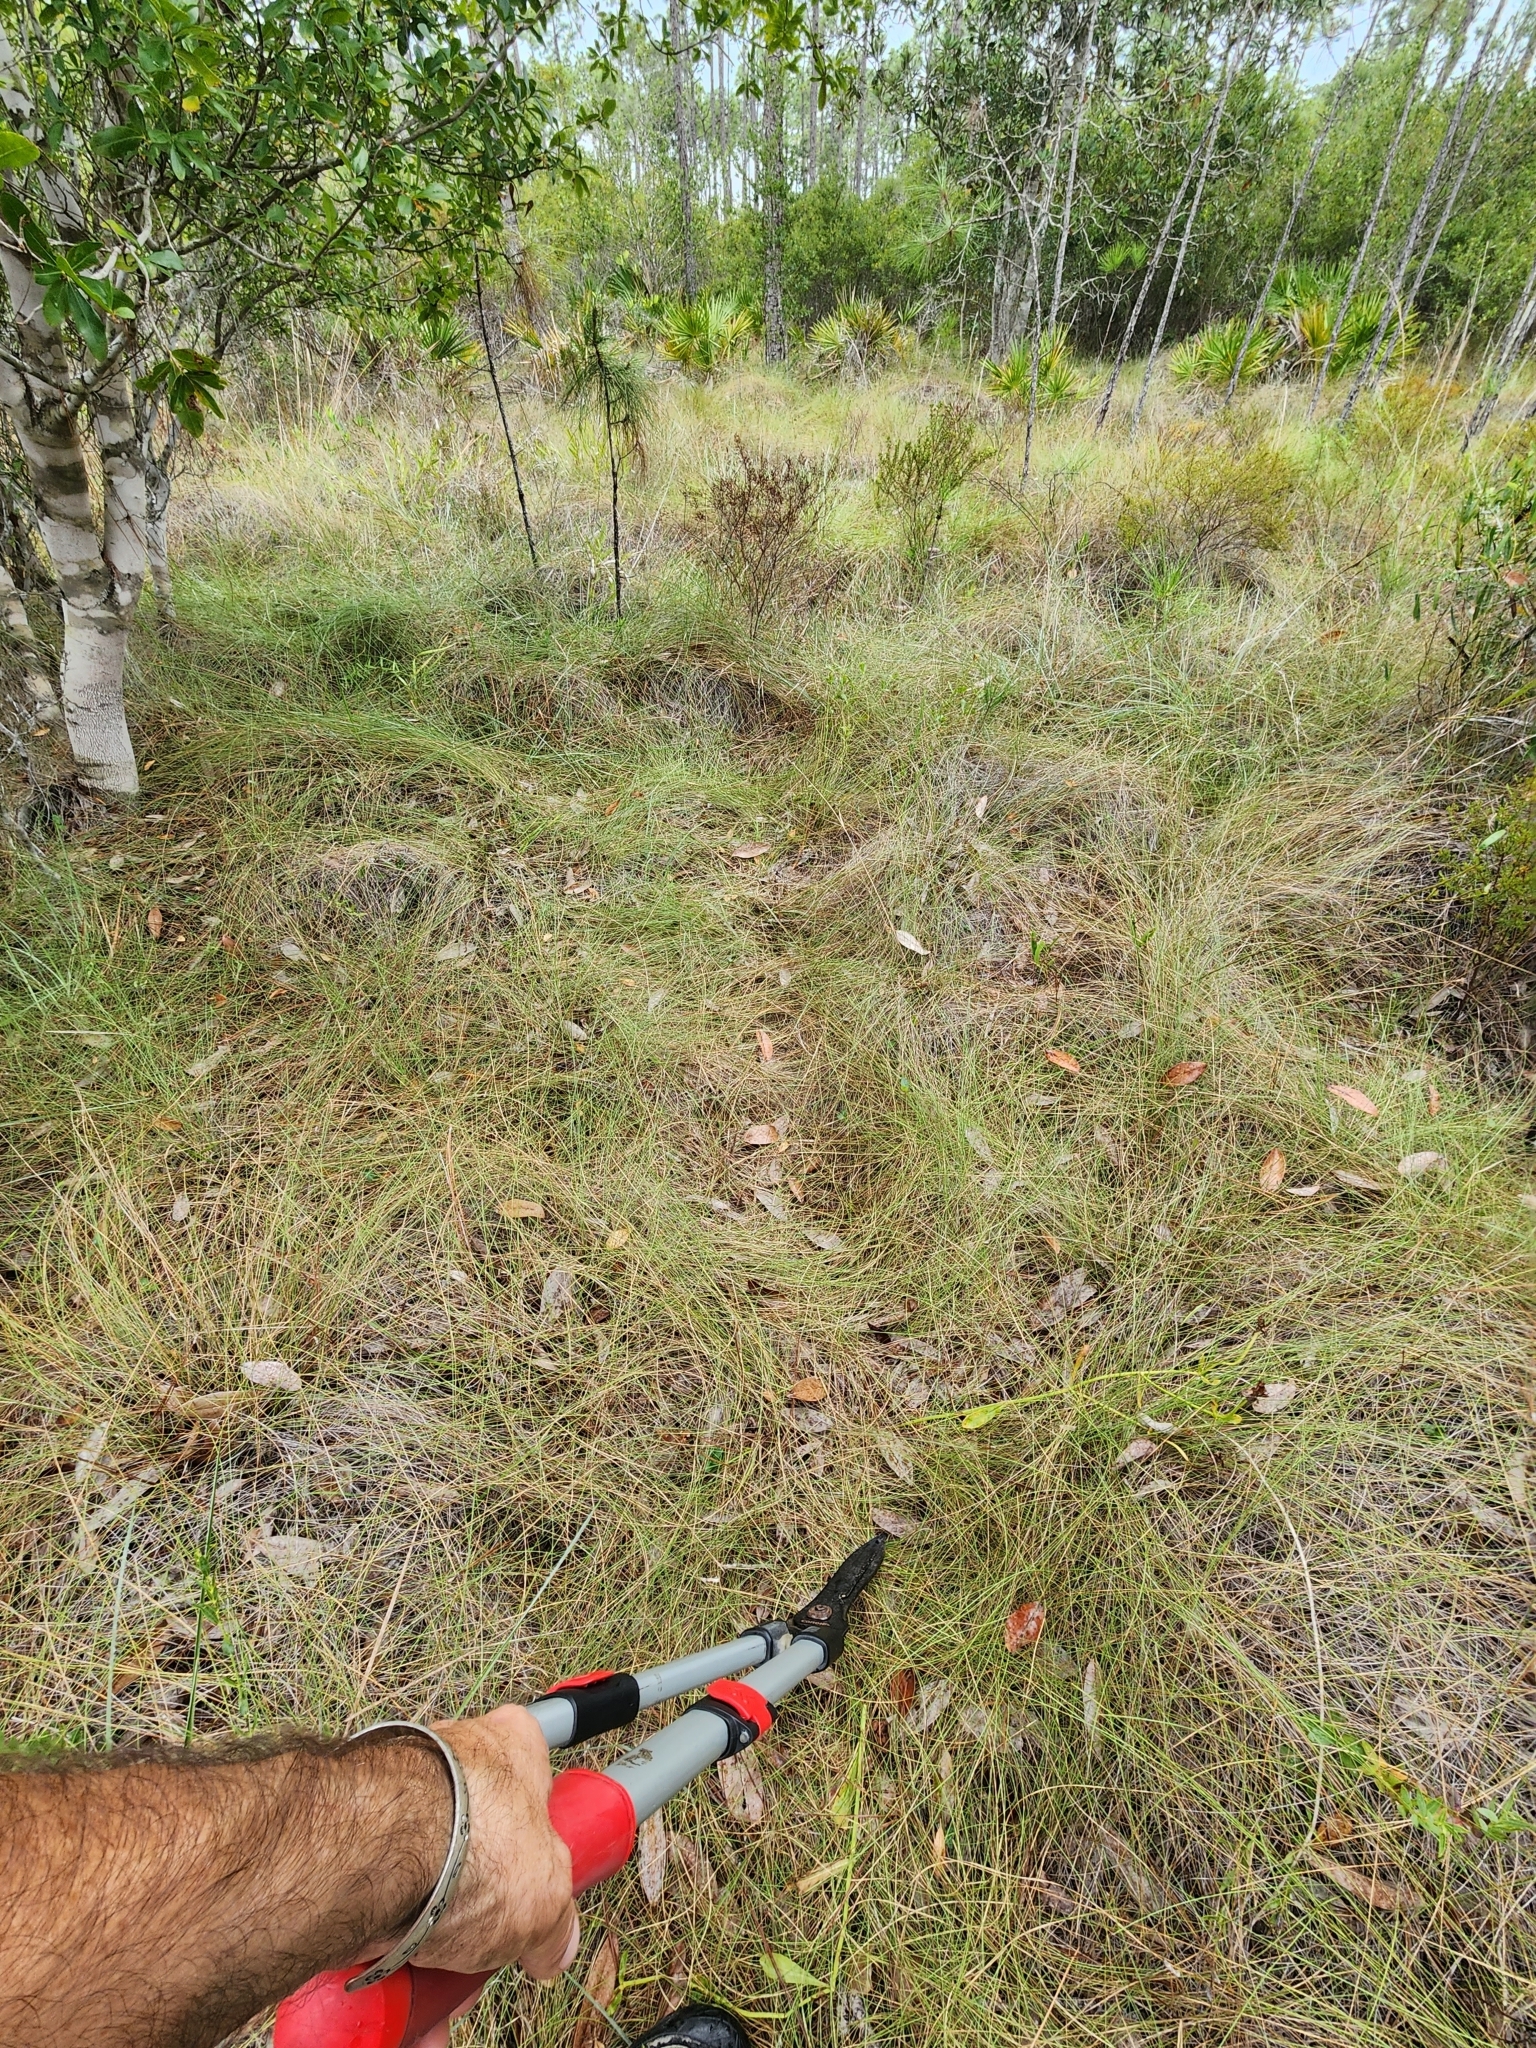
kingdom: Plantae
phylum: Tracheophyta
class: Magnoliopsida
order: Lamiales
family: Lamiaceae
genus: Macbridea
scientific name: Macbridea alba
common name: White birds in-a-nest
